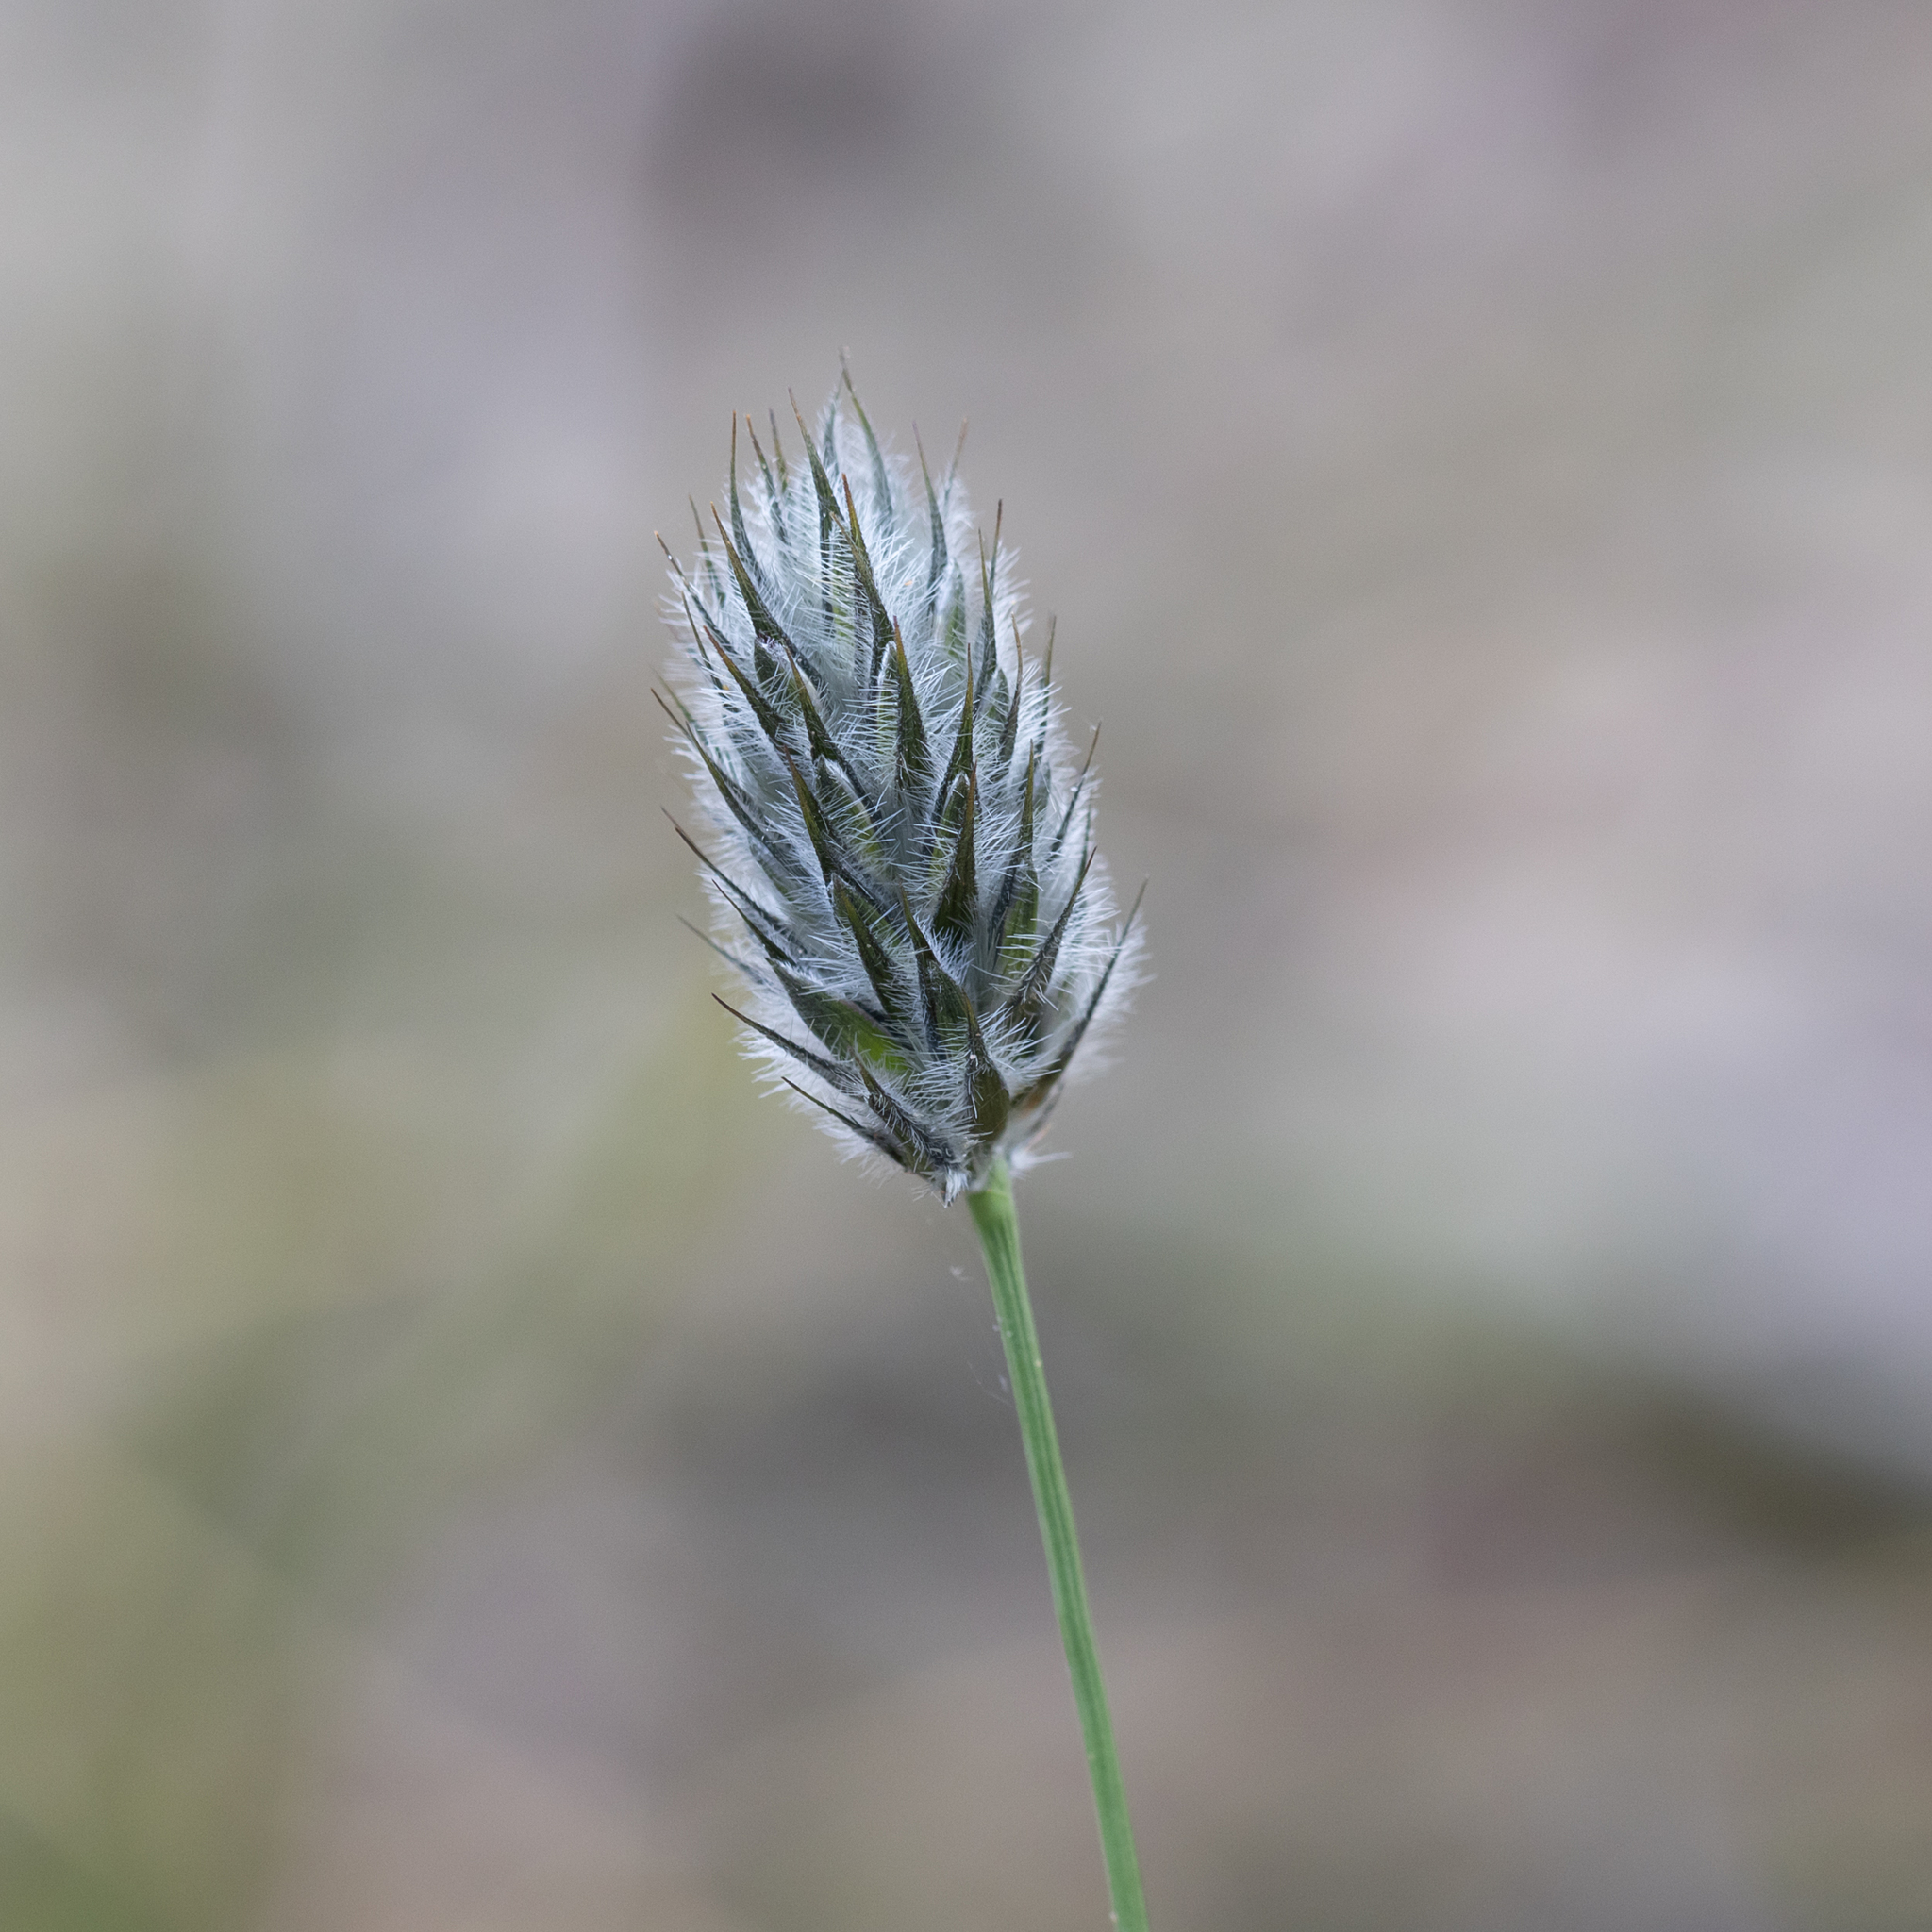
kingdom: Plantae
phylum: Tracheophyta
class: Liliopsida
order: Poales
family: Poaceae
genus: Neurachne
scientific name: Neurachne alopecuroidea
